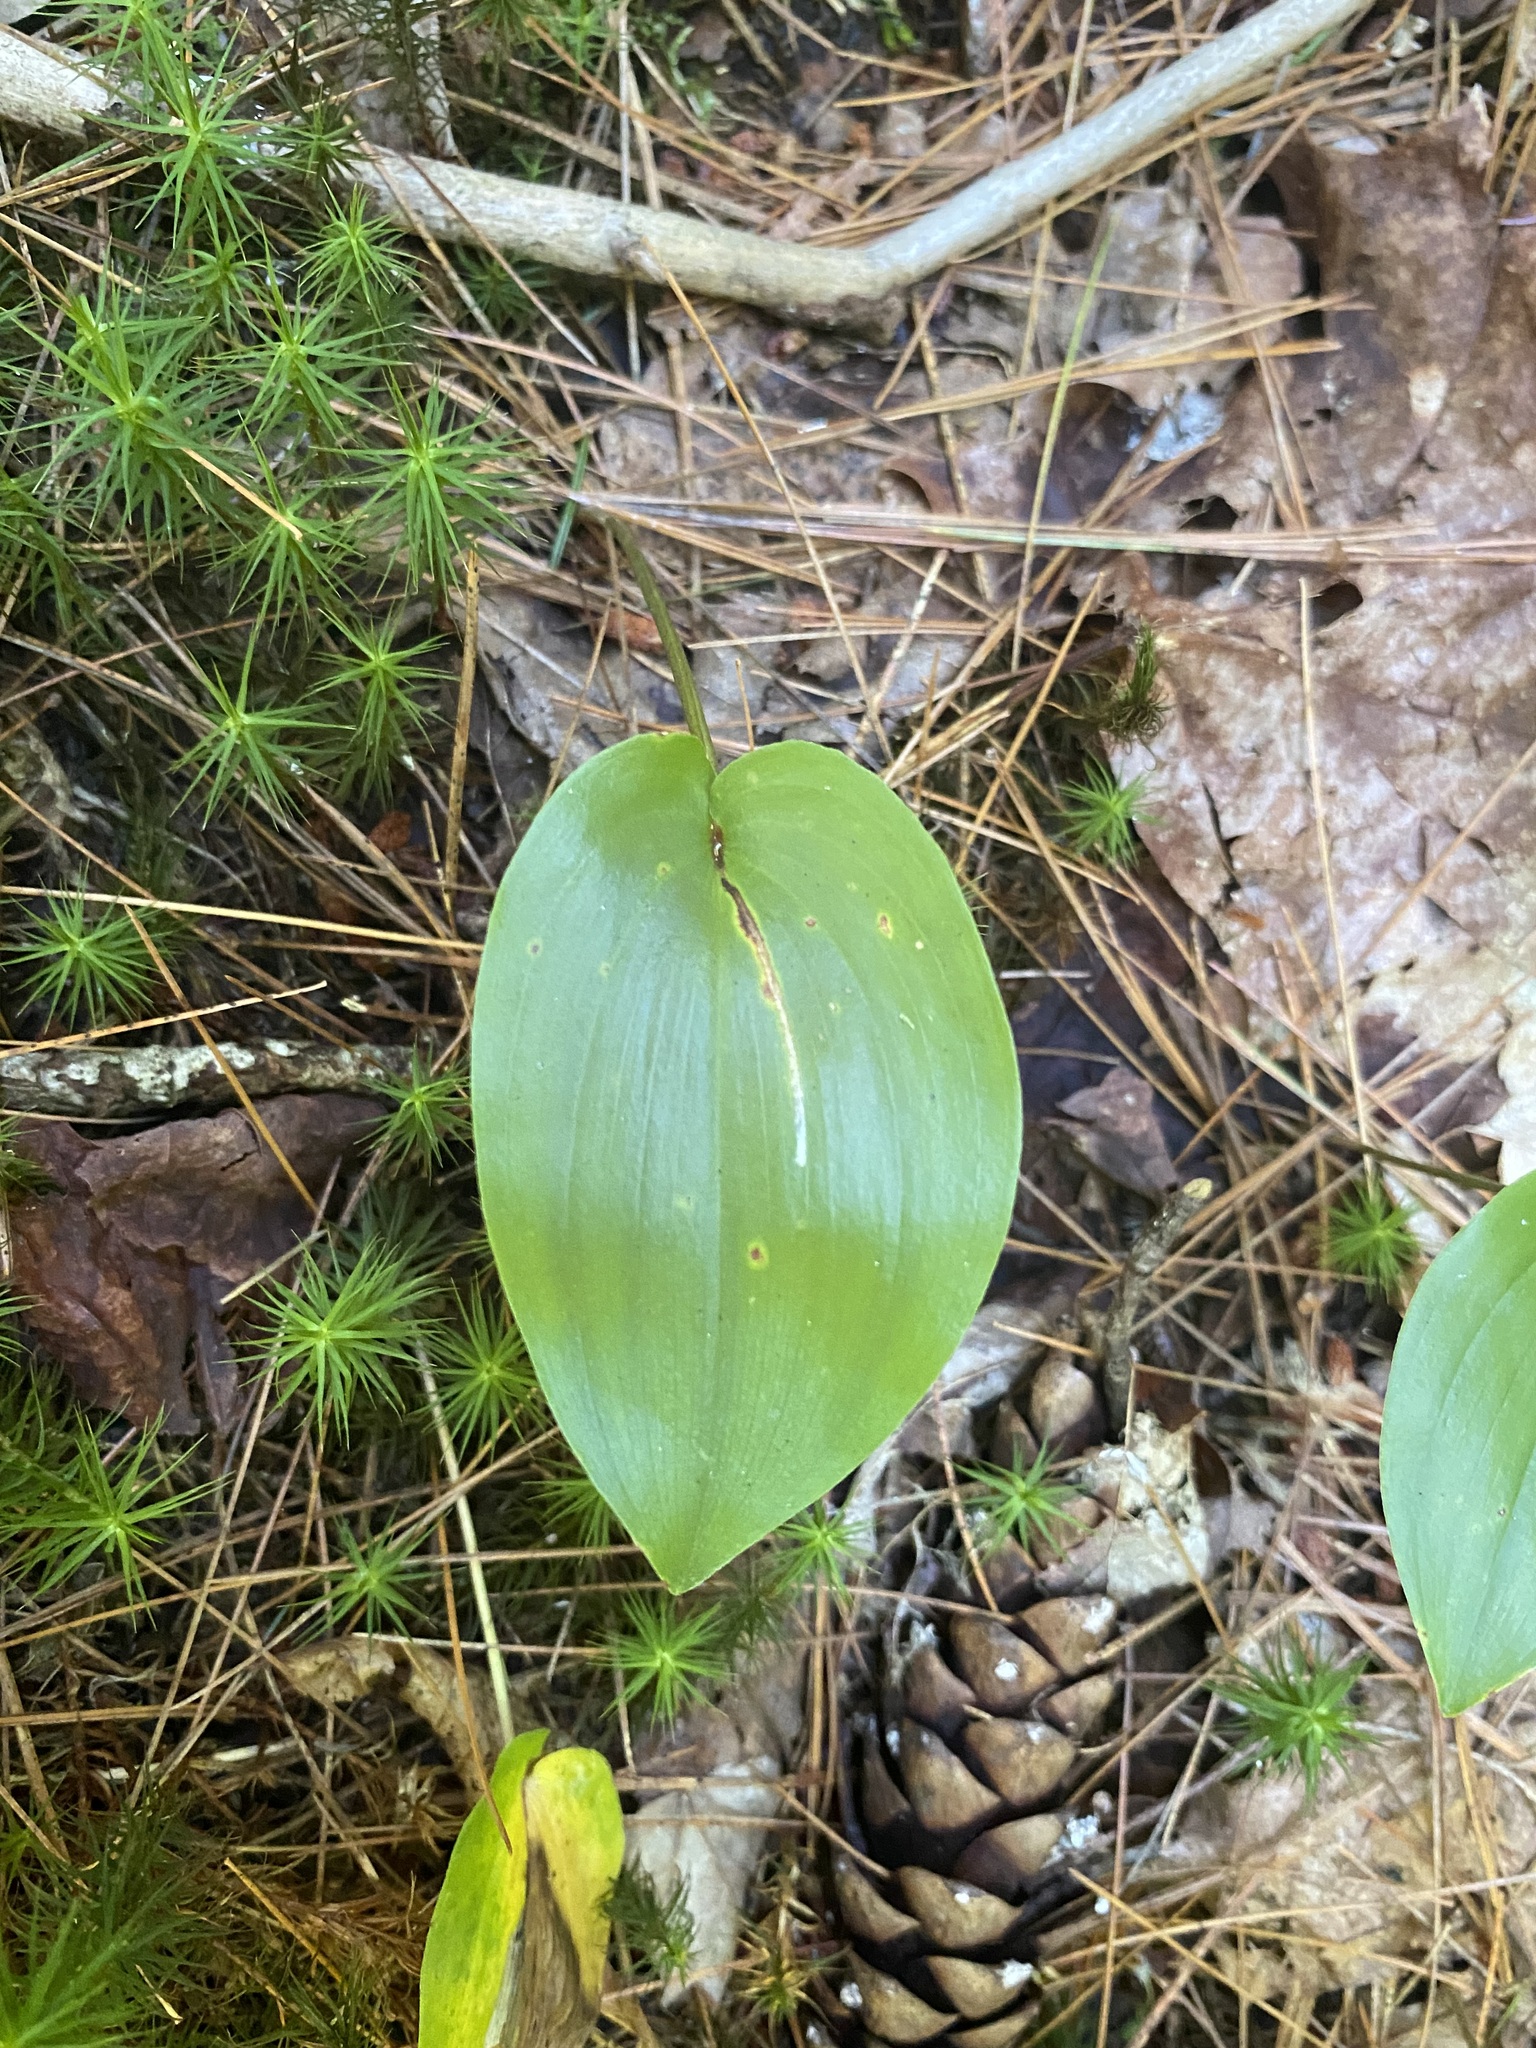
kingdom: Plantae
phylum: Tracheophyta
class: Liliopsida
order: Asparagales
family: Asparagaceae
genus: Maianthemum
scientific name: Maianthemum canadense
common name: False lily-of-the-valley
